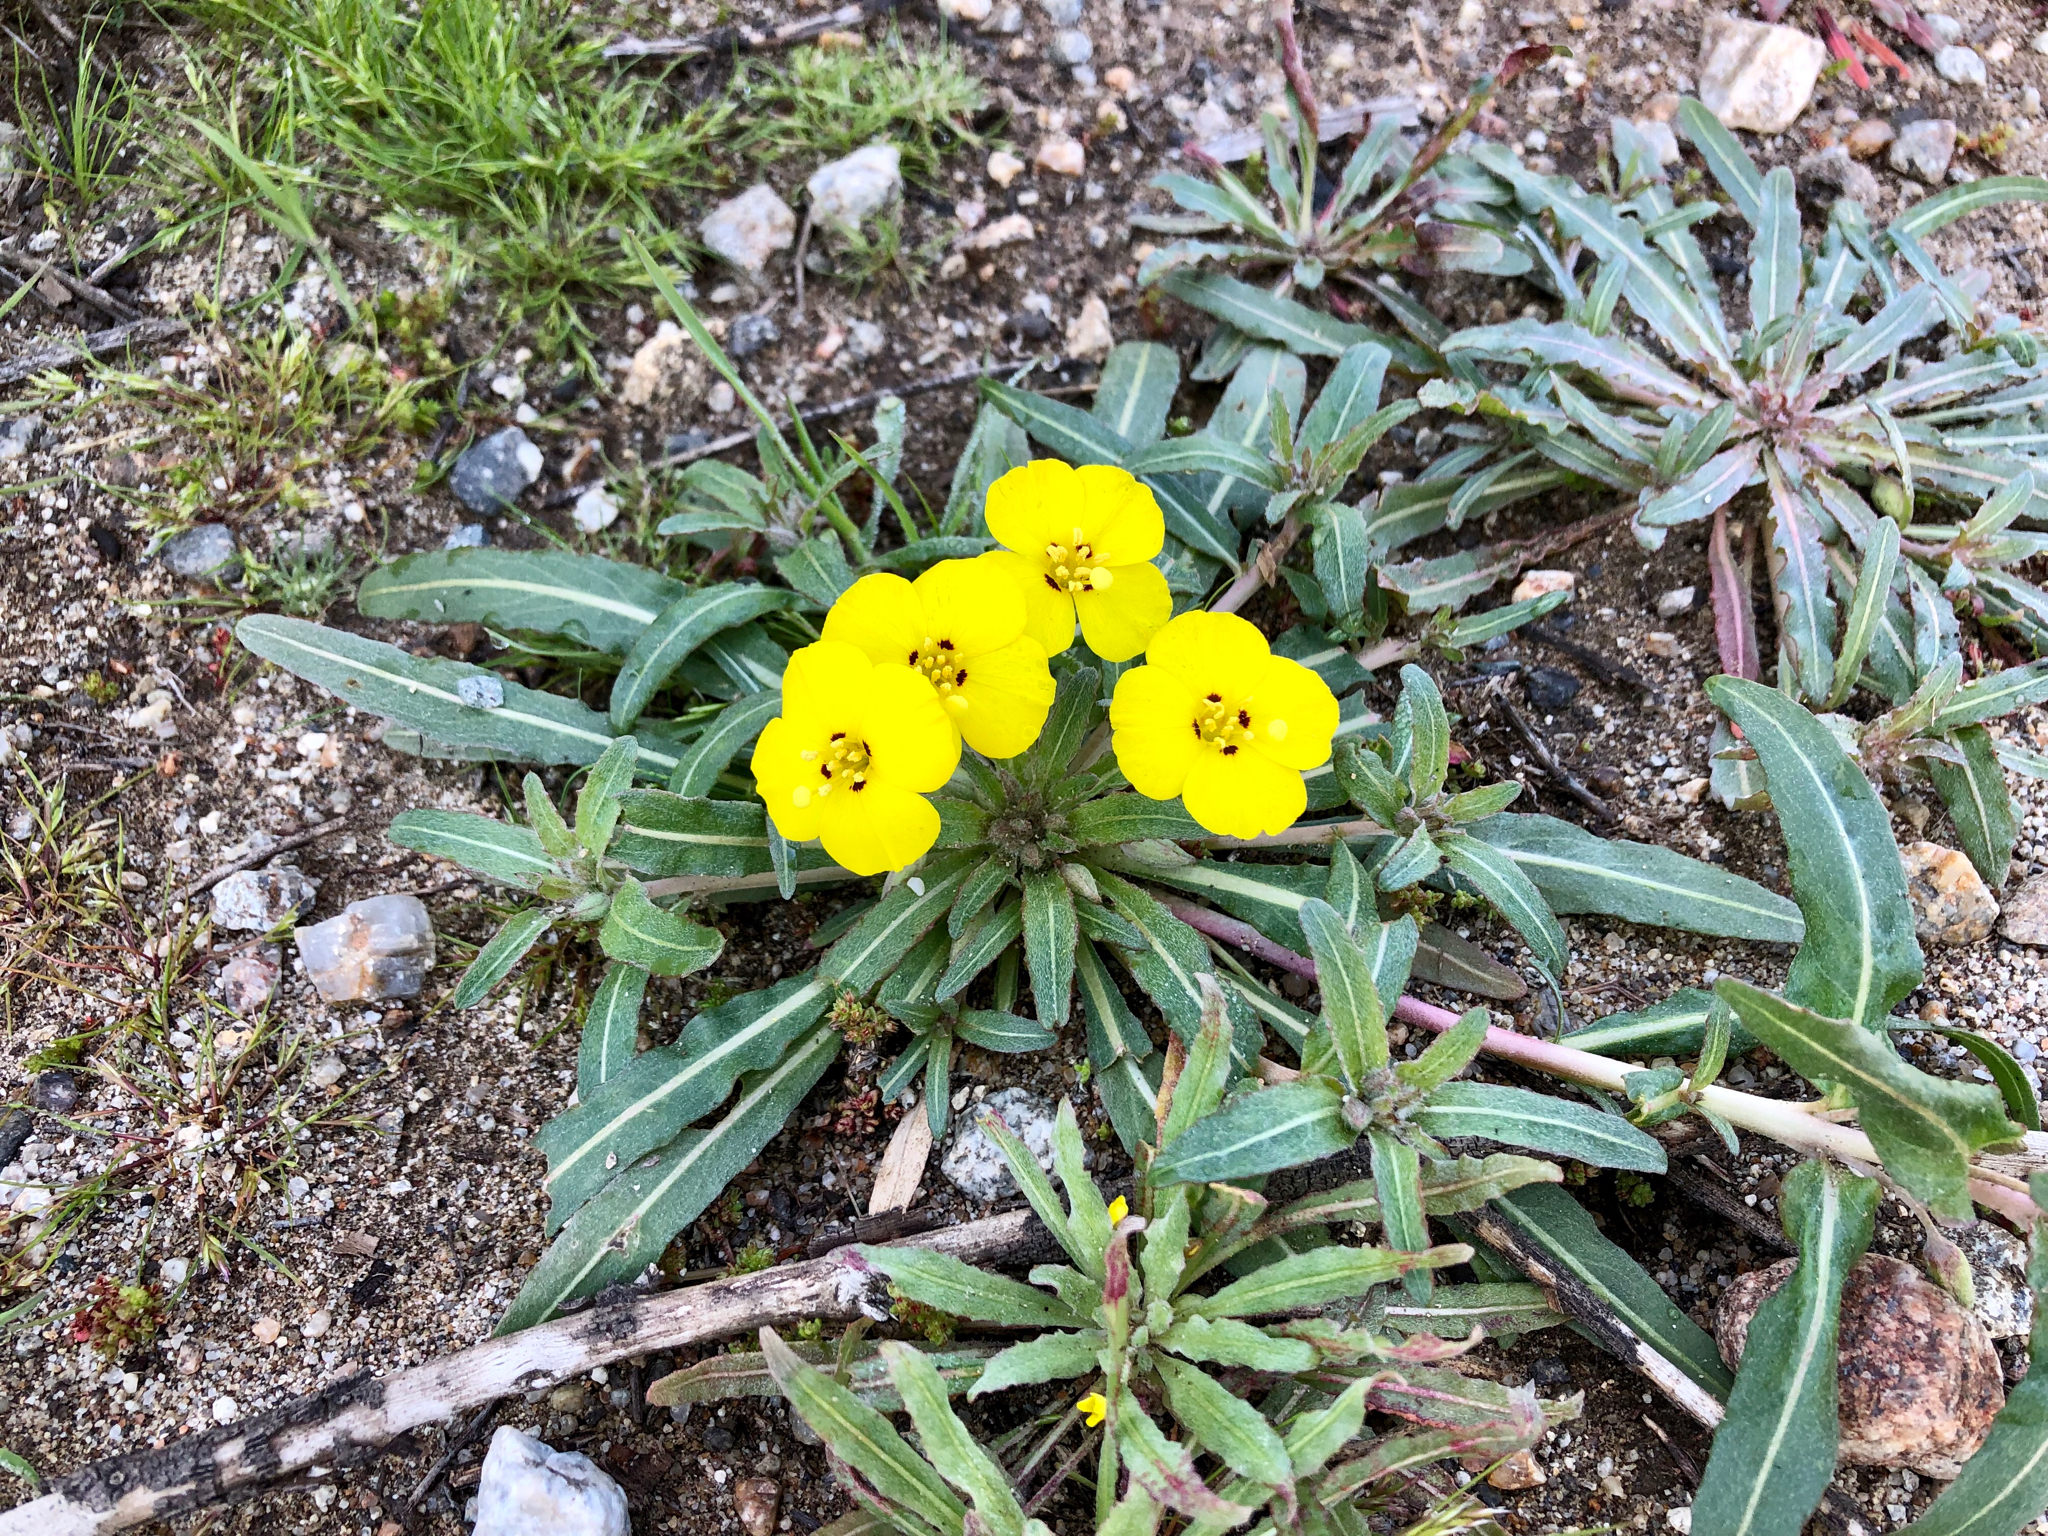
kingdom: Plantae
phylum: Tracheophyta
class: Magnoliopsida
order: Myrtales
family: Onagraceae
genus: Camissoniopsis
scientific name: Camissoniopsis bistorta
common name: Southern suncup
